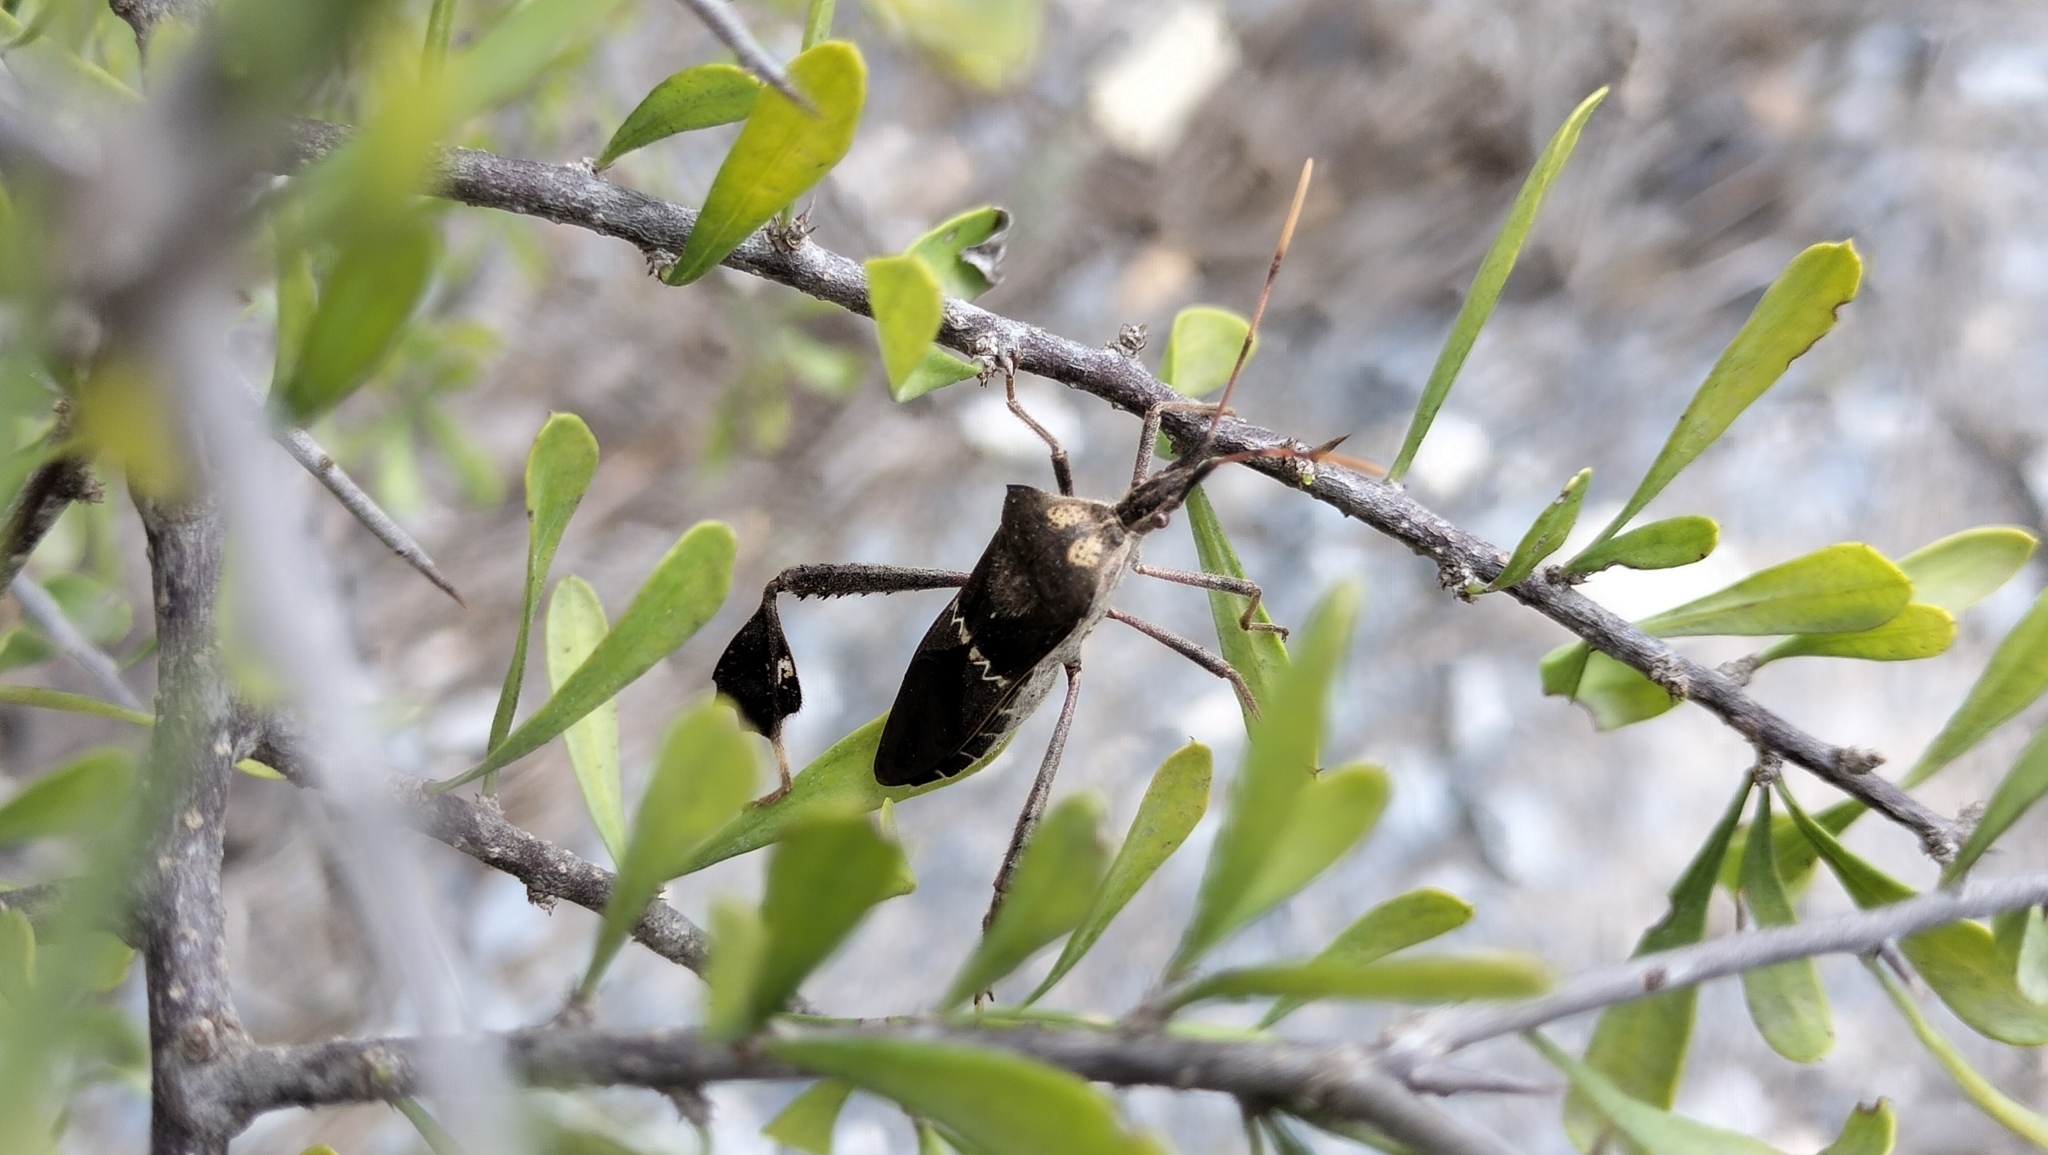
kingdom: Animalia
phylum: Arthropoda
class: Insecta
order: Hemiptera
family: Coreidae
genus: Leptoglossus
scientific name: Leptoglossus zonatus
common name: Large-legged bug
